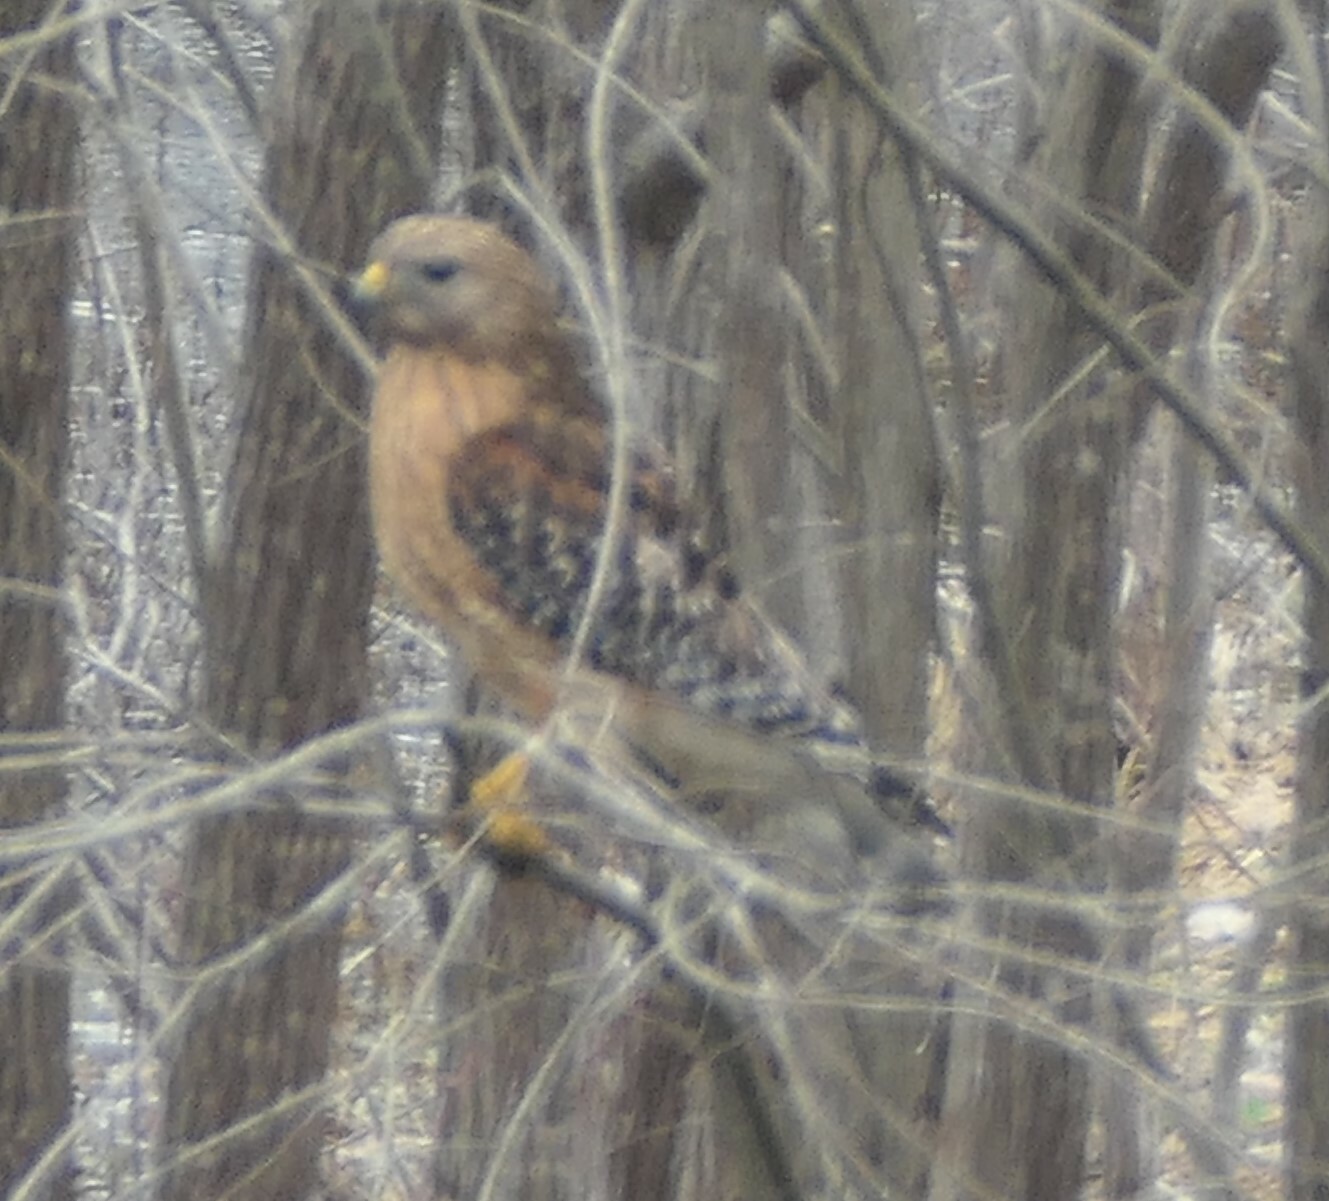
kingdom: Animalia
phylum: Chordata
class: Aves
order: Accipitriformes
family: Accipitridae
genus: Buteo
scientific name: Buteo lineatus
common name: Red-shouldered hawk
